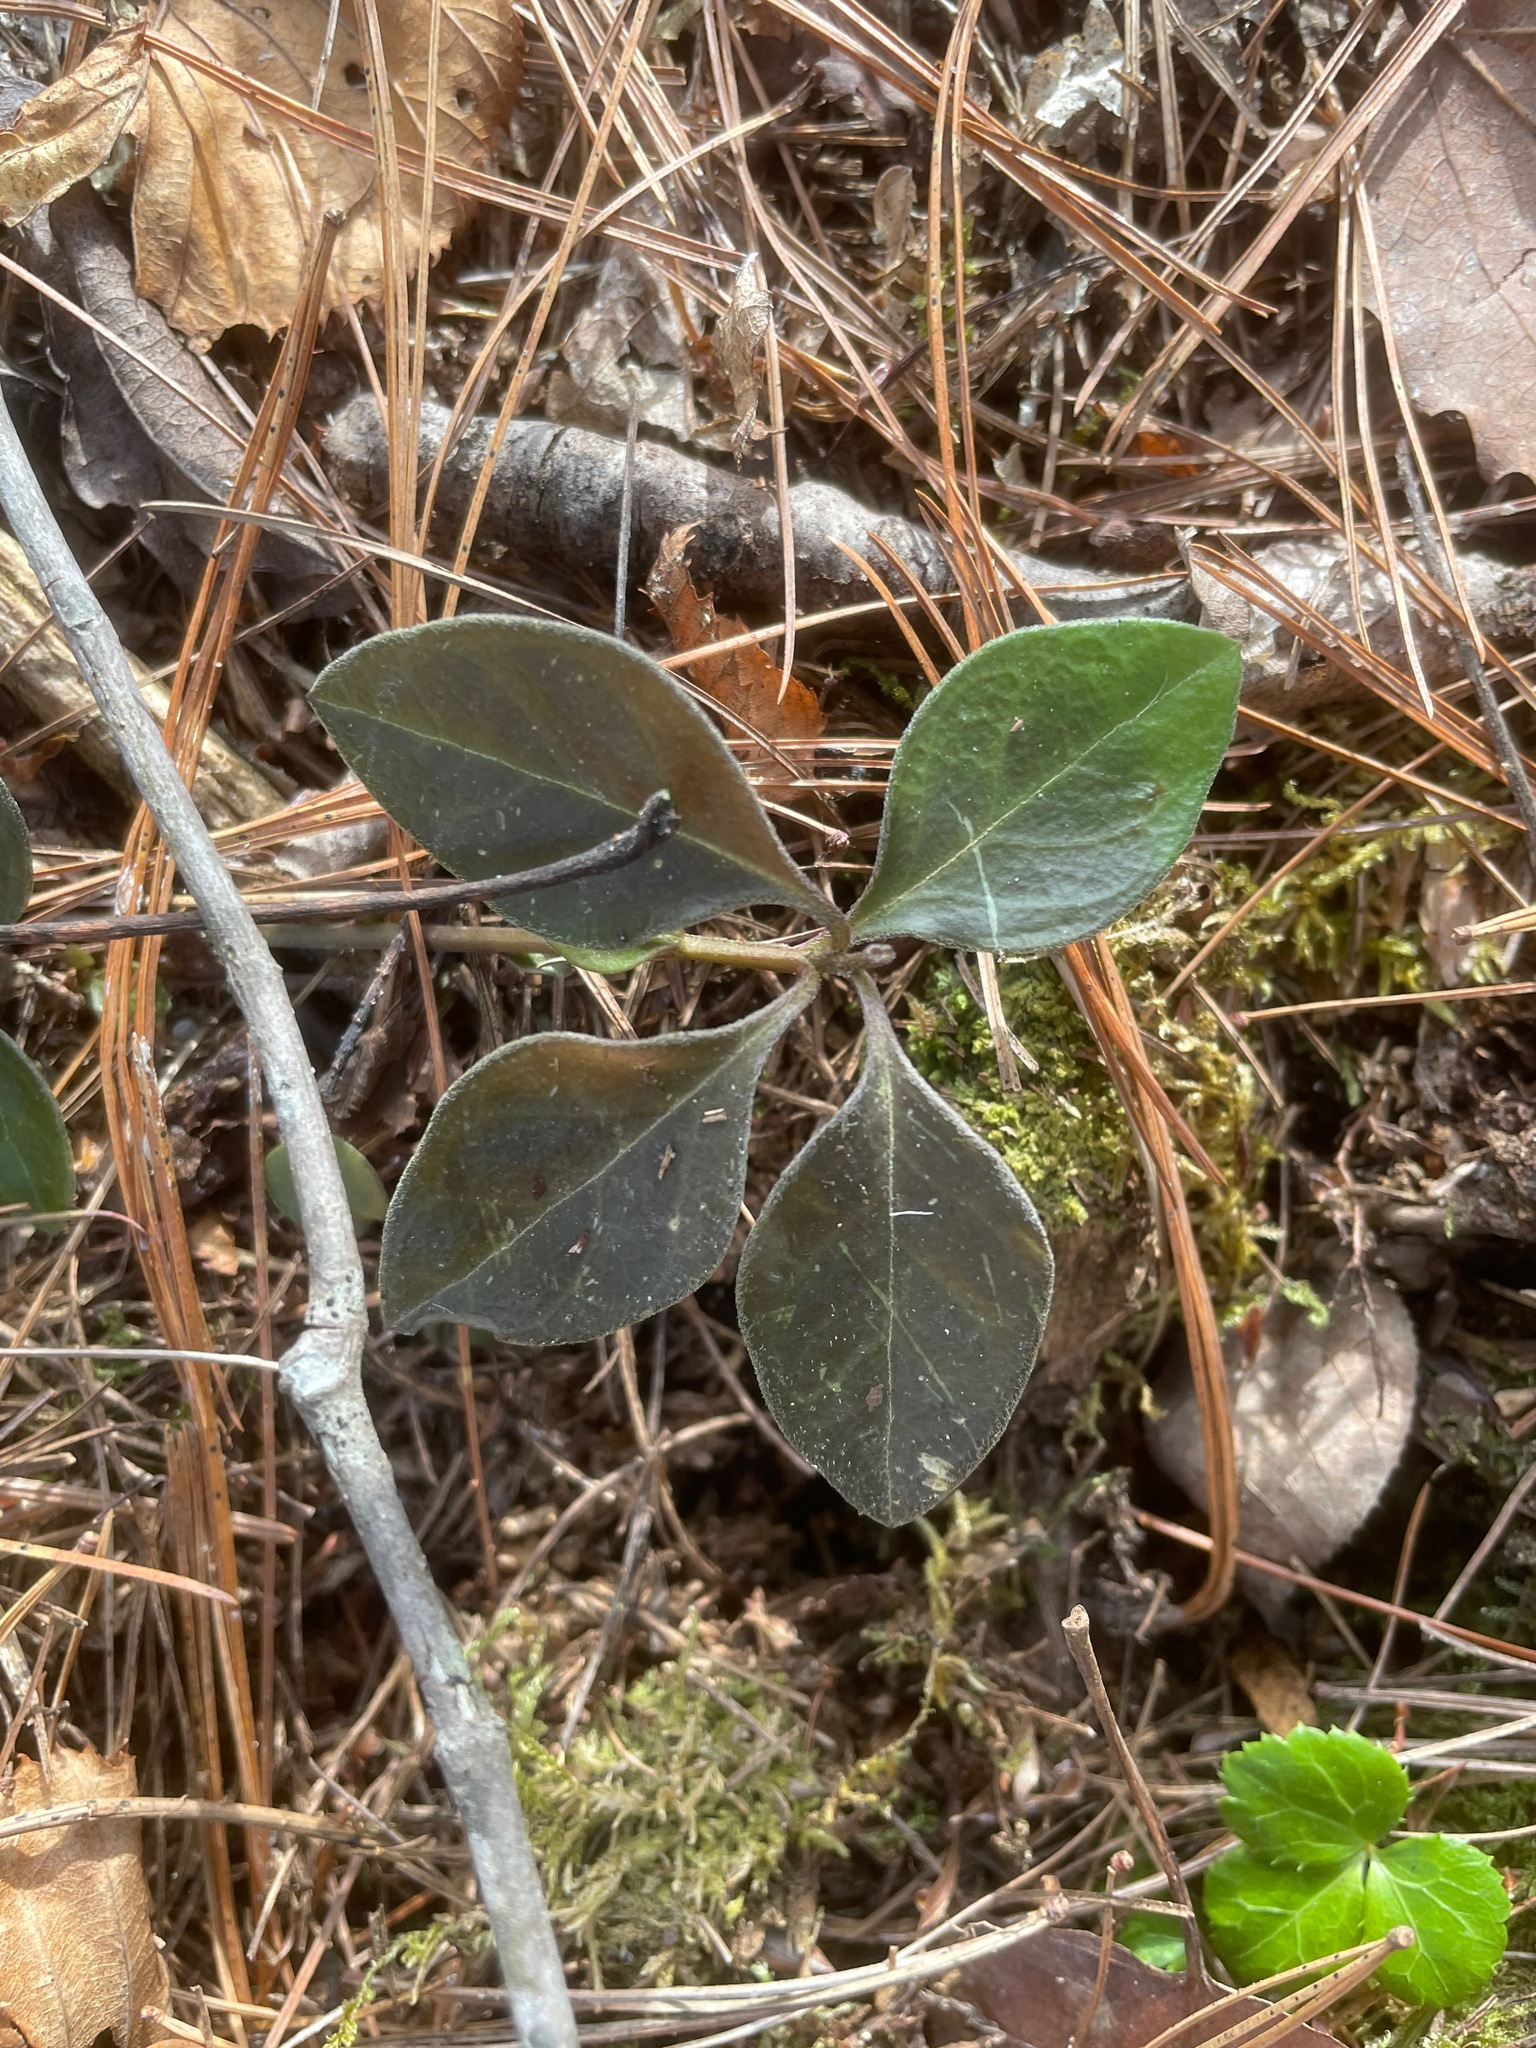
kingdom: Plantae
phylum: Tracheophyta
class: Magnoliopsida
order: Fabales
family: Polygalaceae
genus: Polygaloides
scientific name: Polygaloides paucifolia
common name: Bird-on-the-wing
